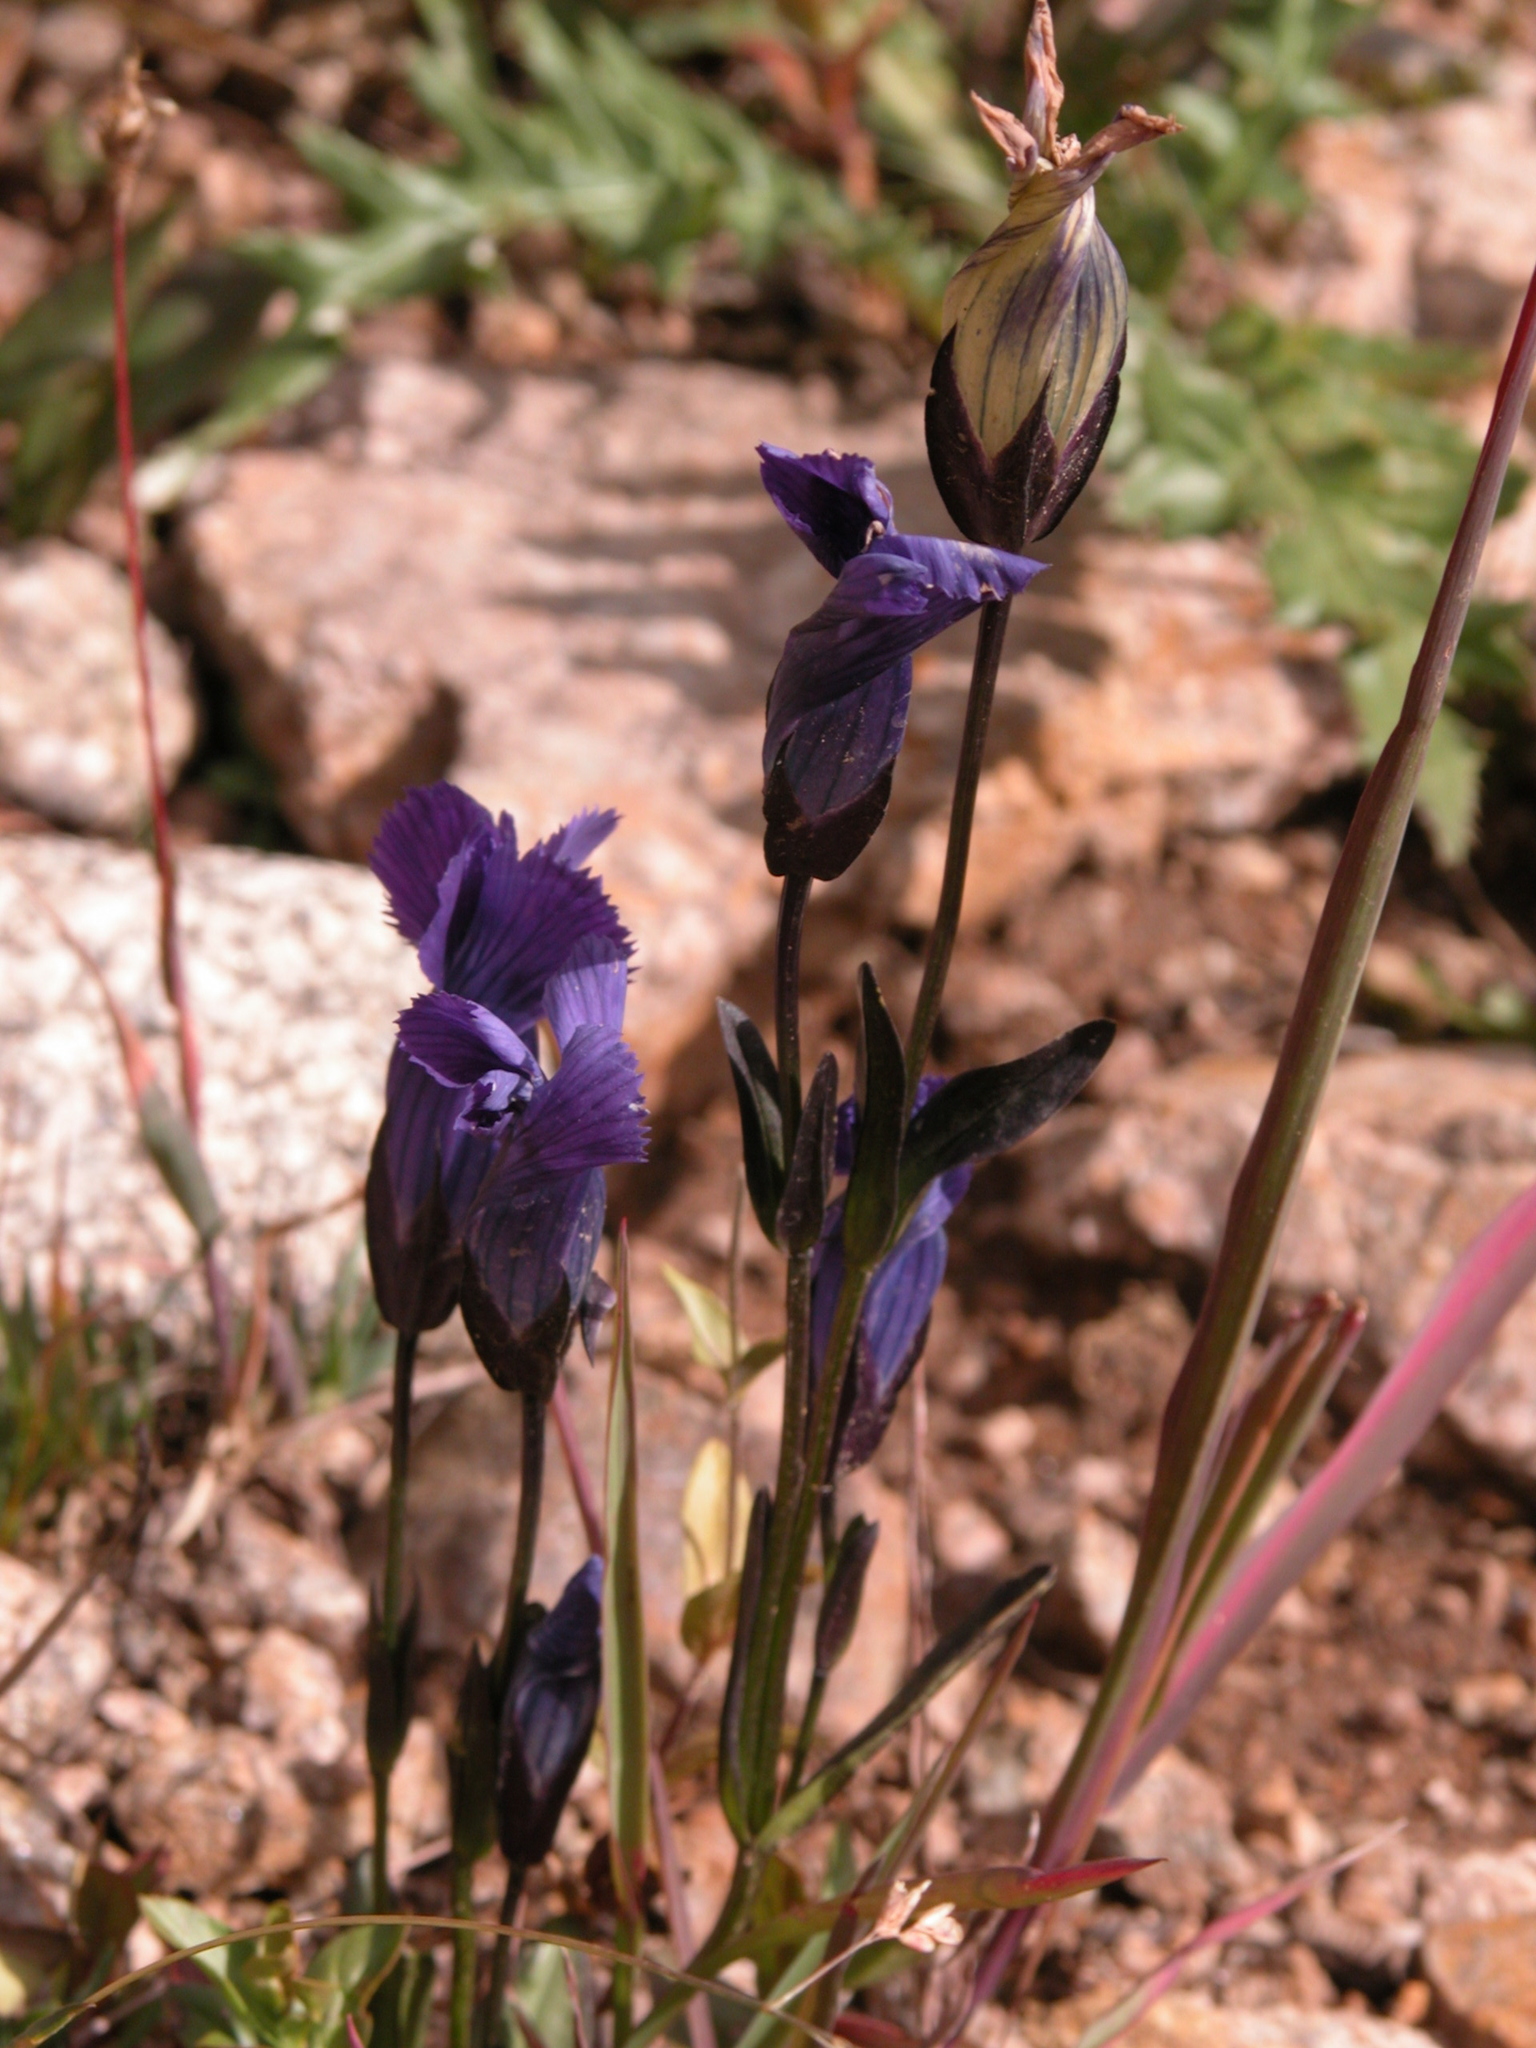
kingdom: Plantae
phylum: Tracheophyta
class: Magnoliopsida
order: Gentianales
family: Gentianaceae
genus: Gentianopsis
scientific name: Gentianopsis thermalis
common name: Rocky mountain fringed-gentian
